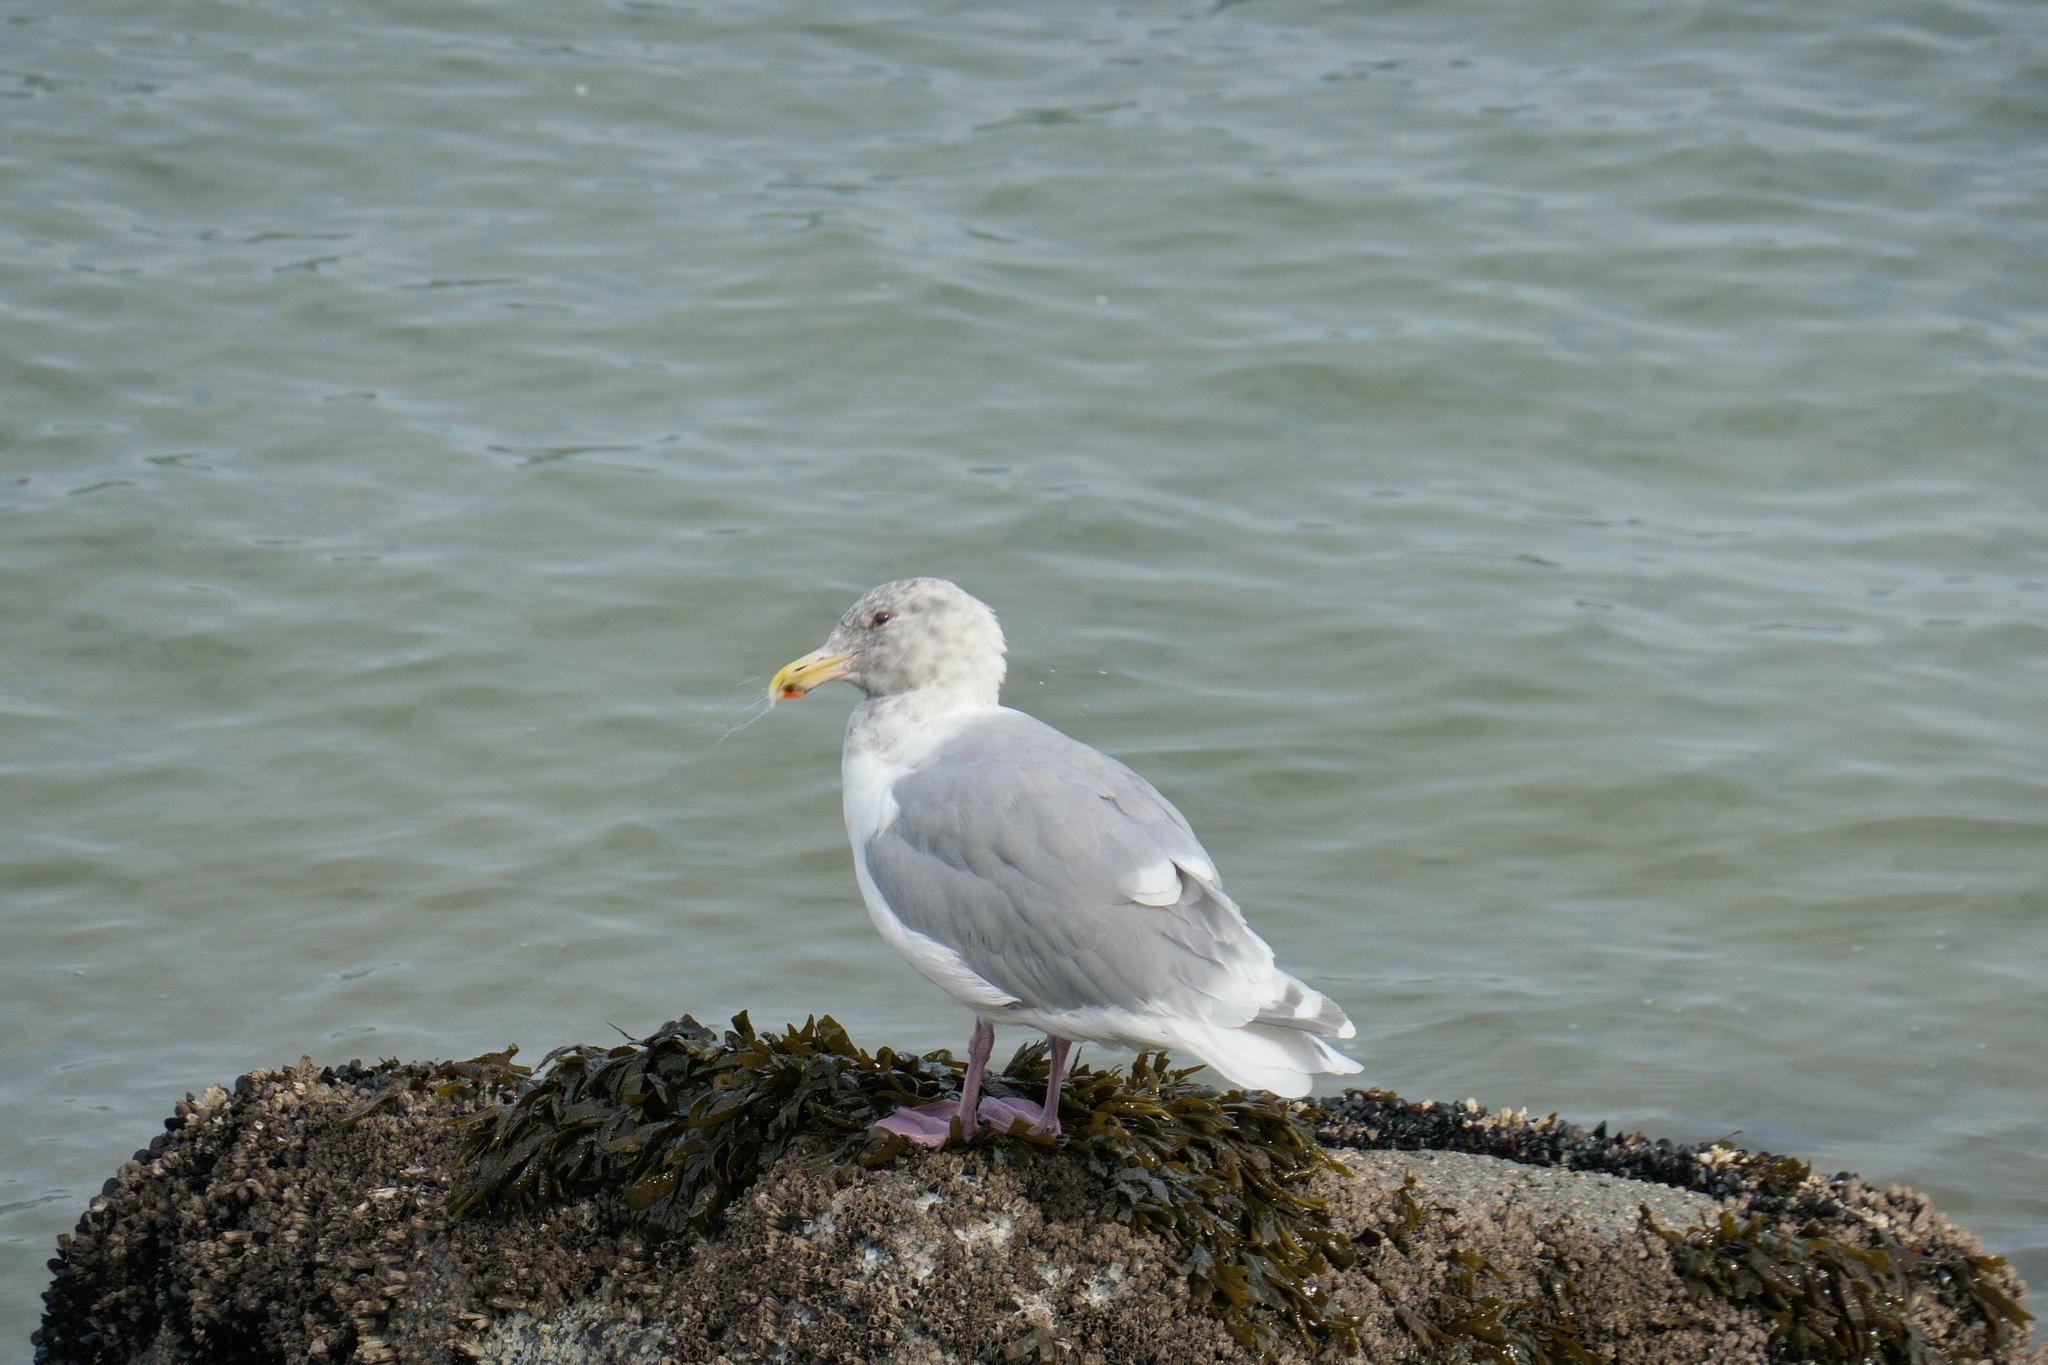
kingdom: Animalia
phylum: Chordata
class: Aves
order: Charadriiformes
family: Laridae
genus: Larus
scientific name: Larus glaucescens
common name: Glaucous-winged gull
